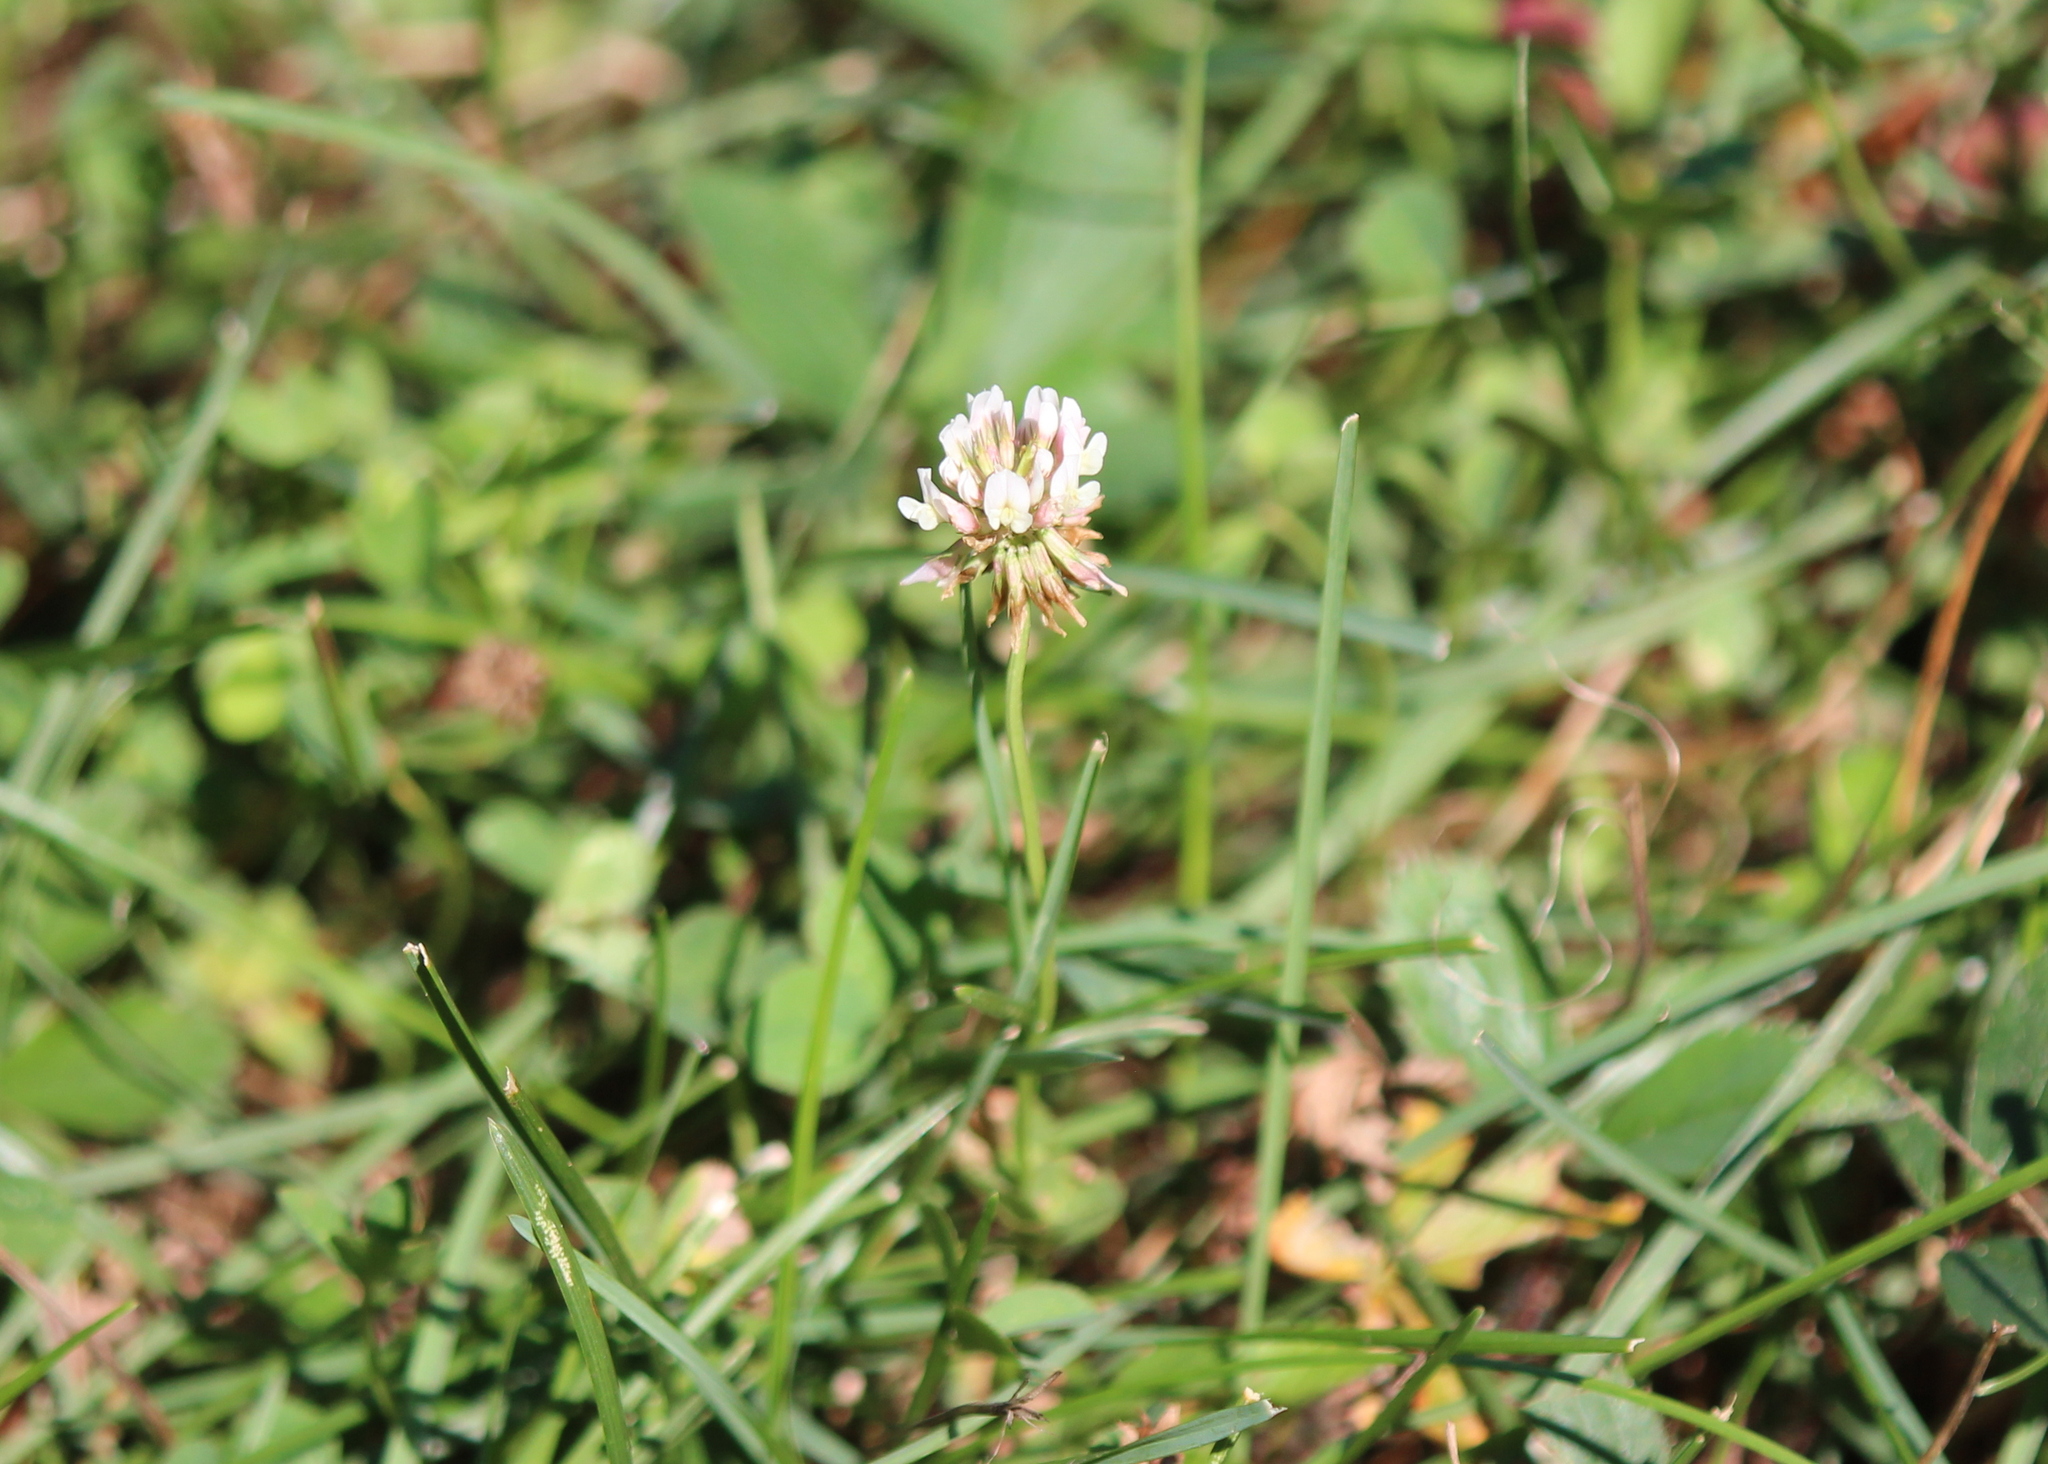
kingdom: Plantae
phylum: Tracheophyta
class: Magnoliopsida
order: Fabales
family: Fabaceae
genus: Trifolium
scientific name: Trifolium repens
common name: White clover
